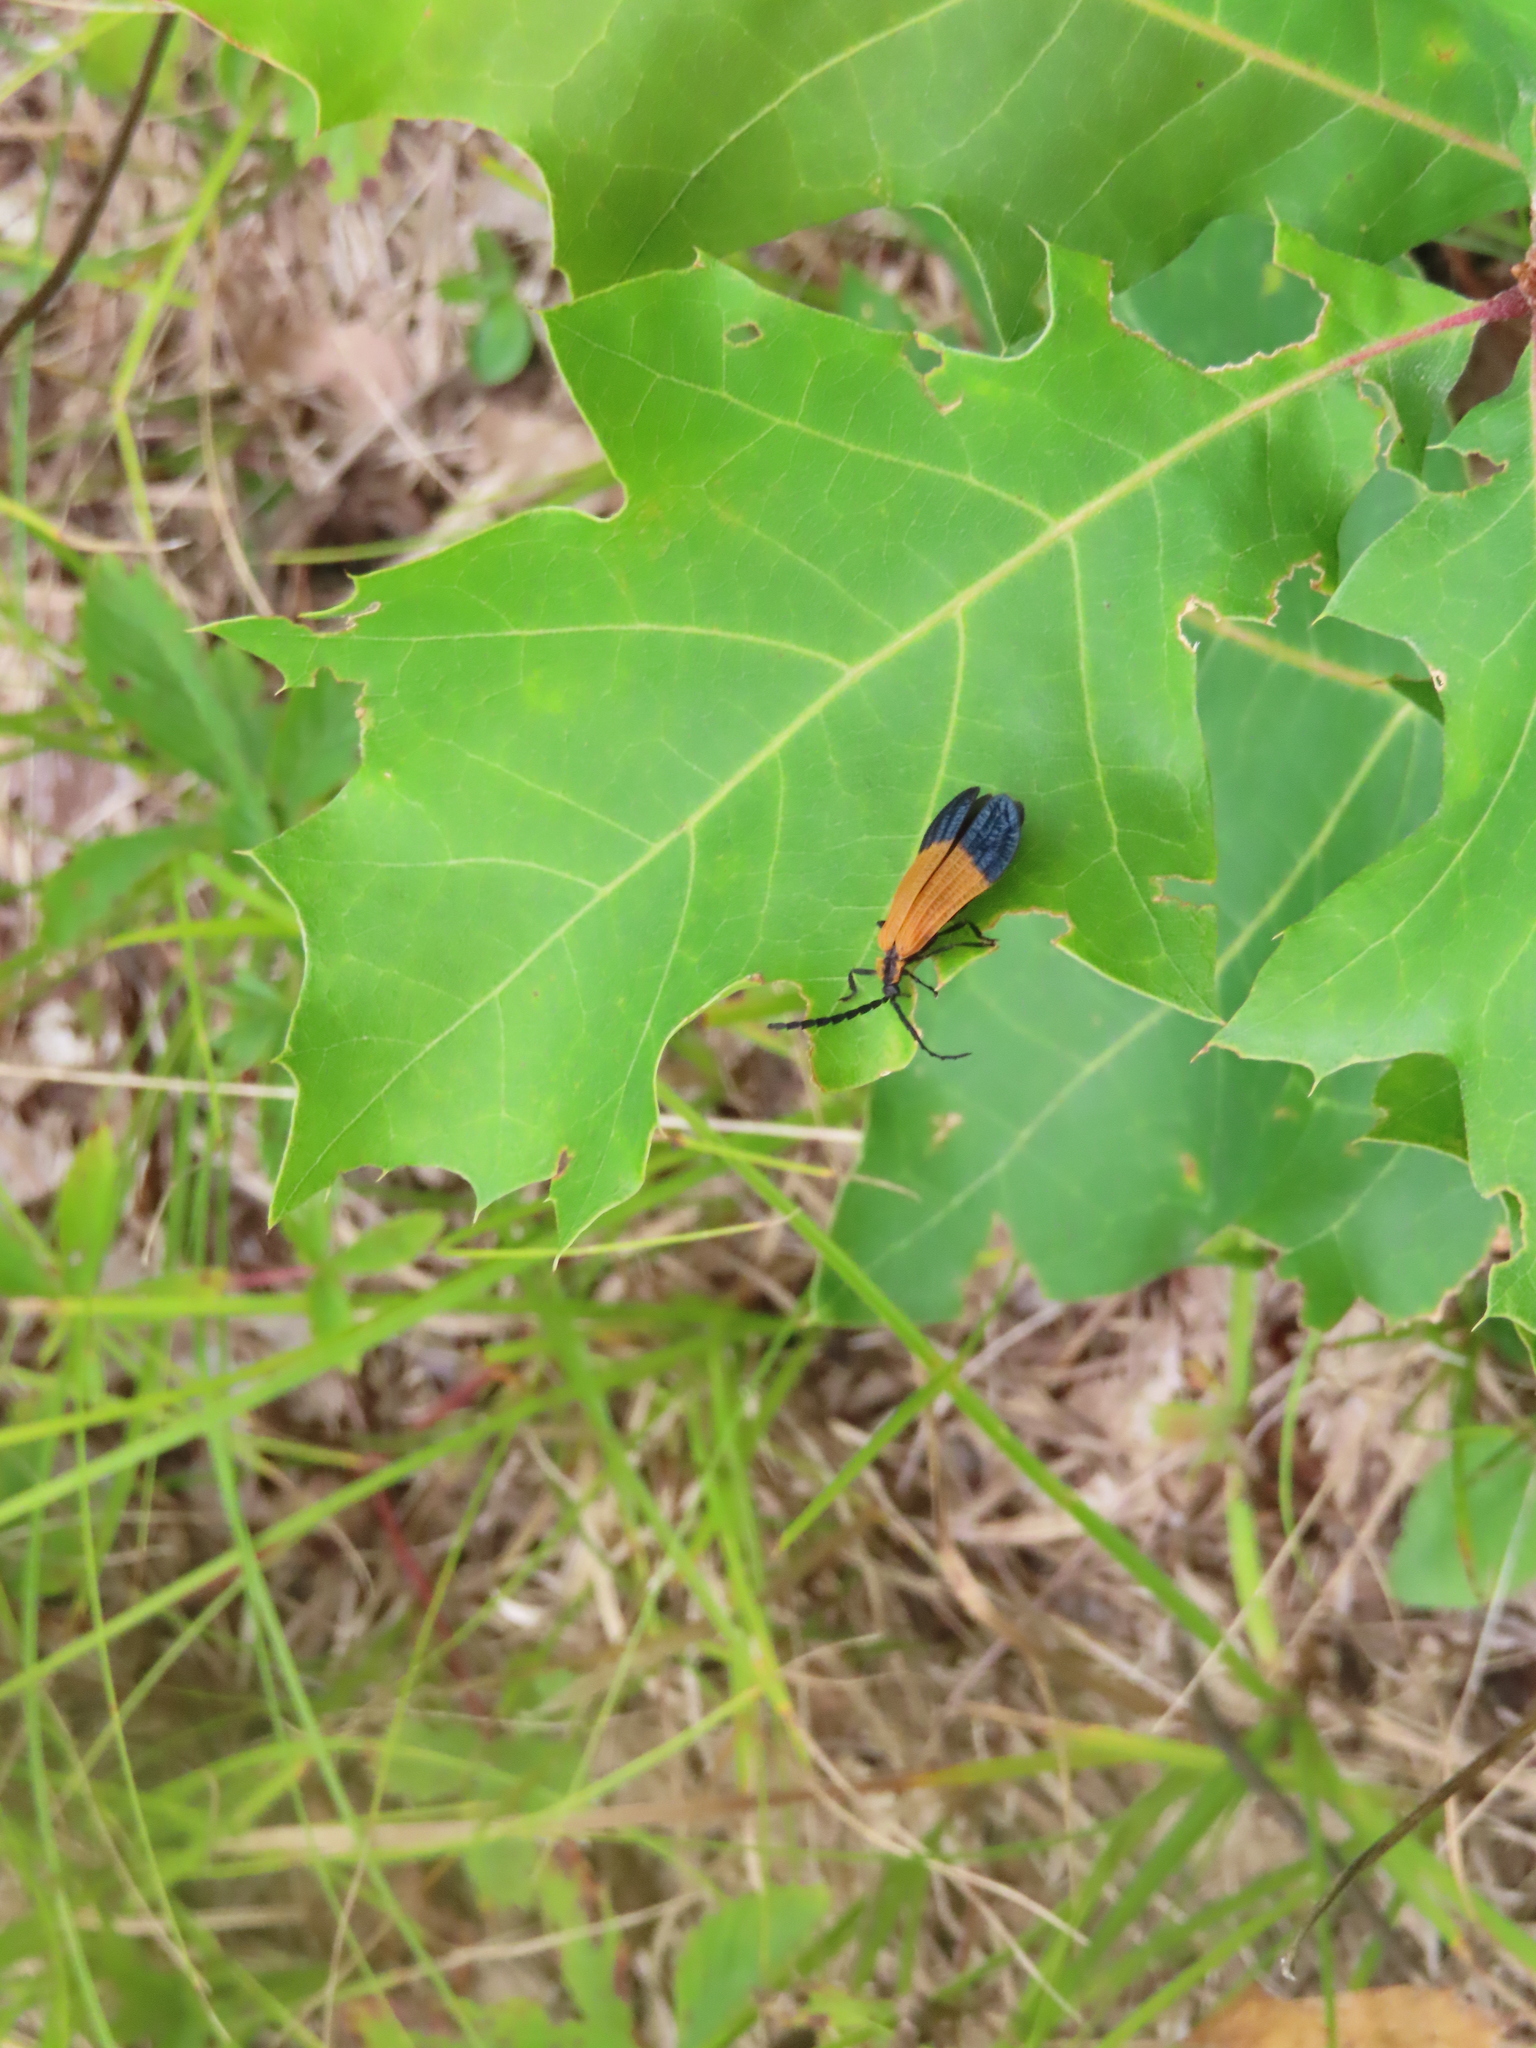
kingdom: Animalia
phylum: Arthropoda
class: Insecta
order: Coleoptera
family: Lycidae
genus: Calopteron
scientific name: Calopteron terminale
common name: End band net-winged beetle
